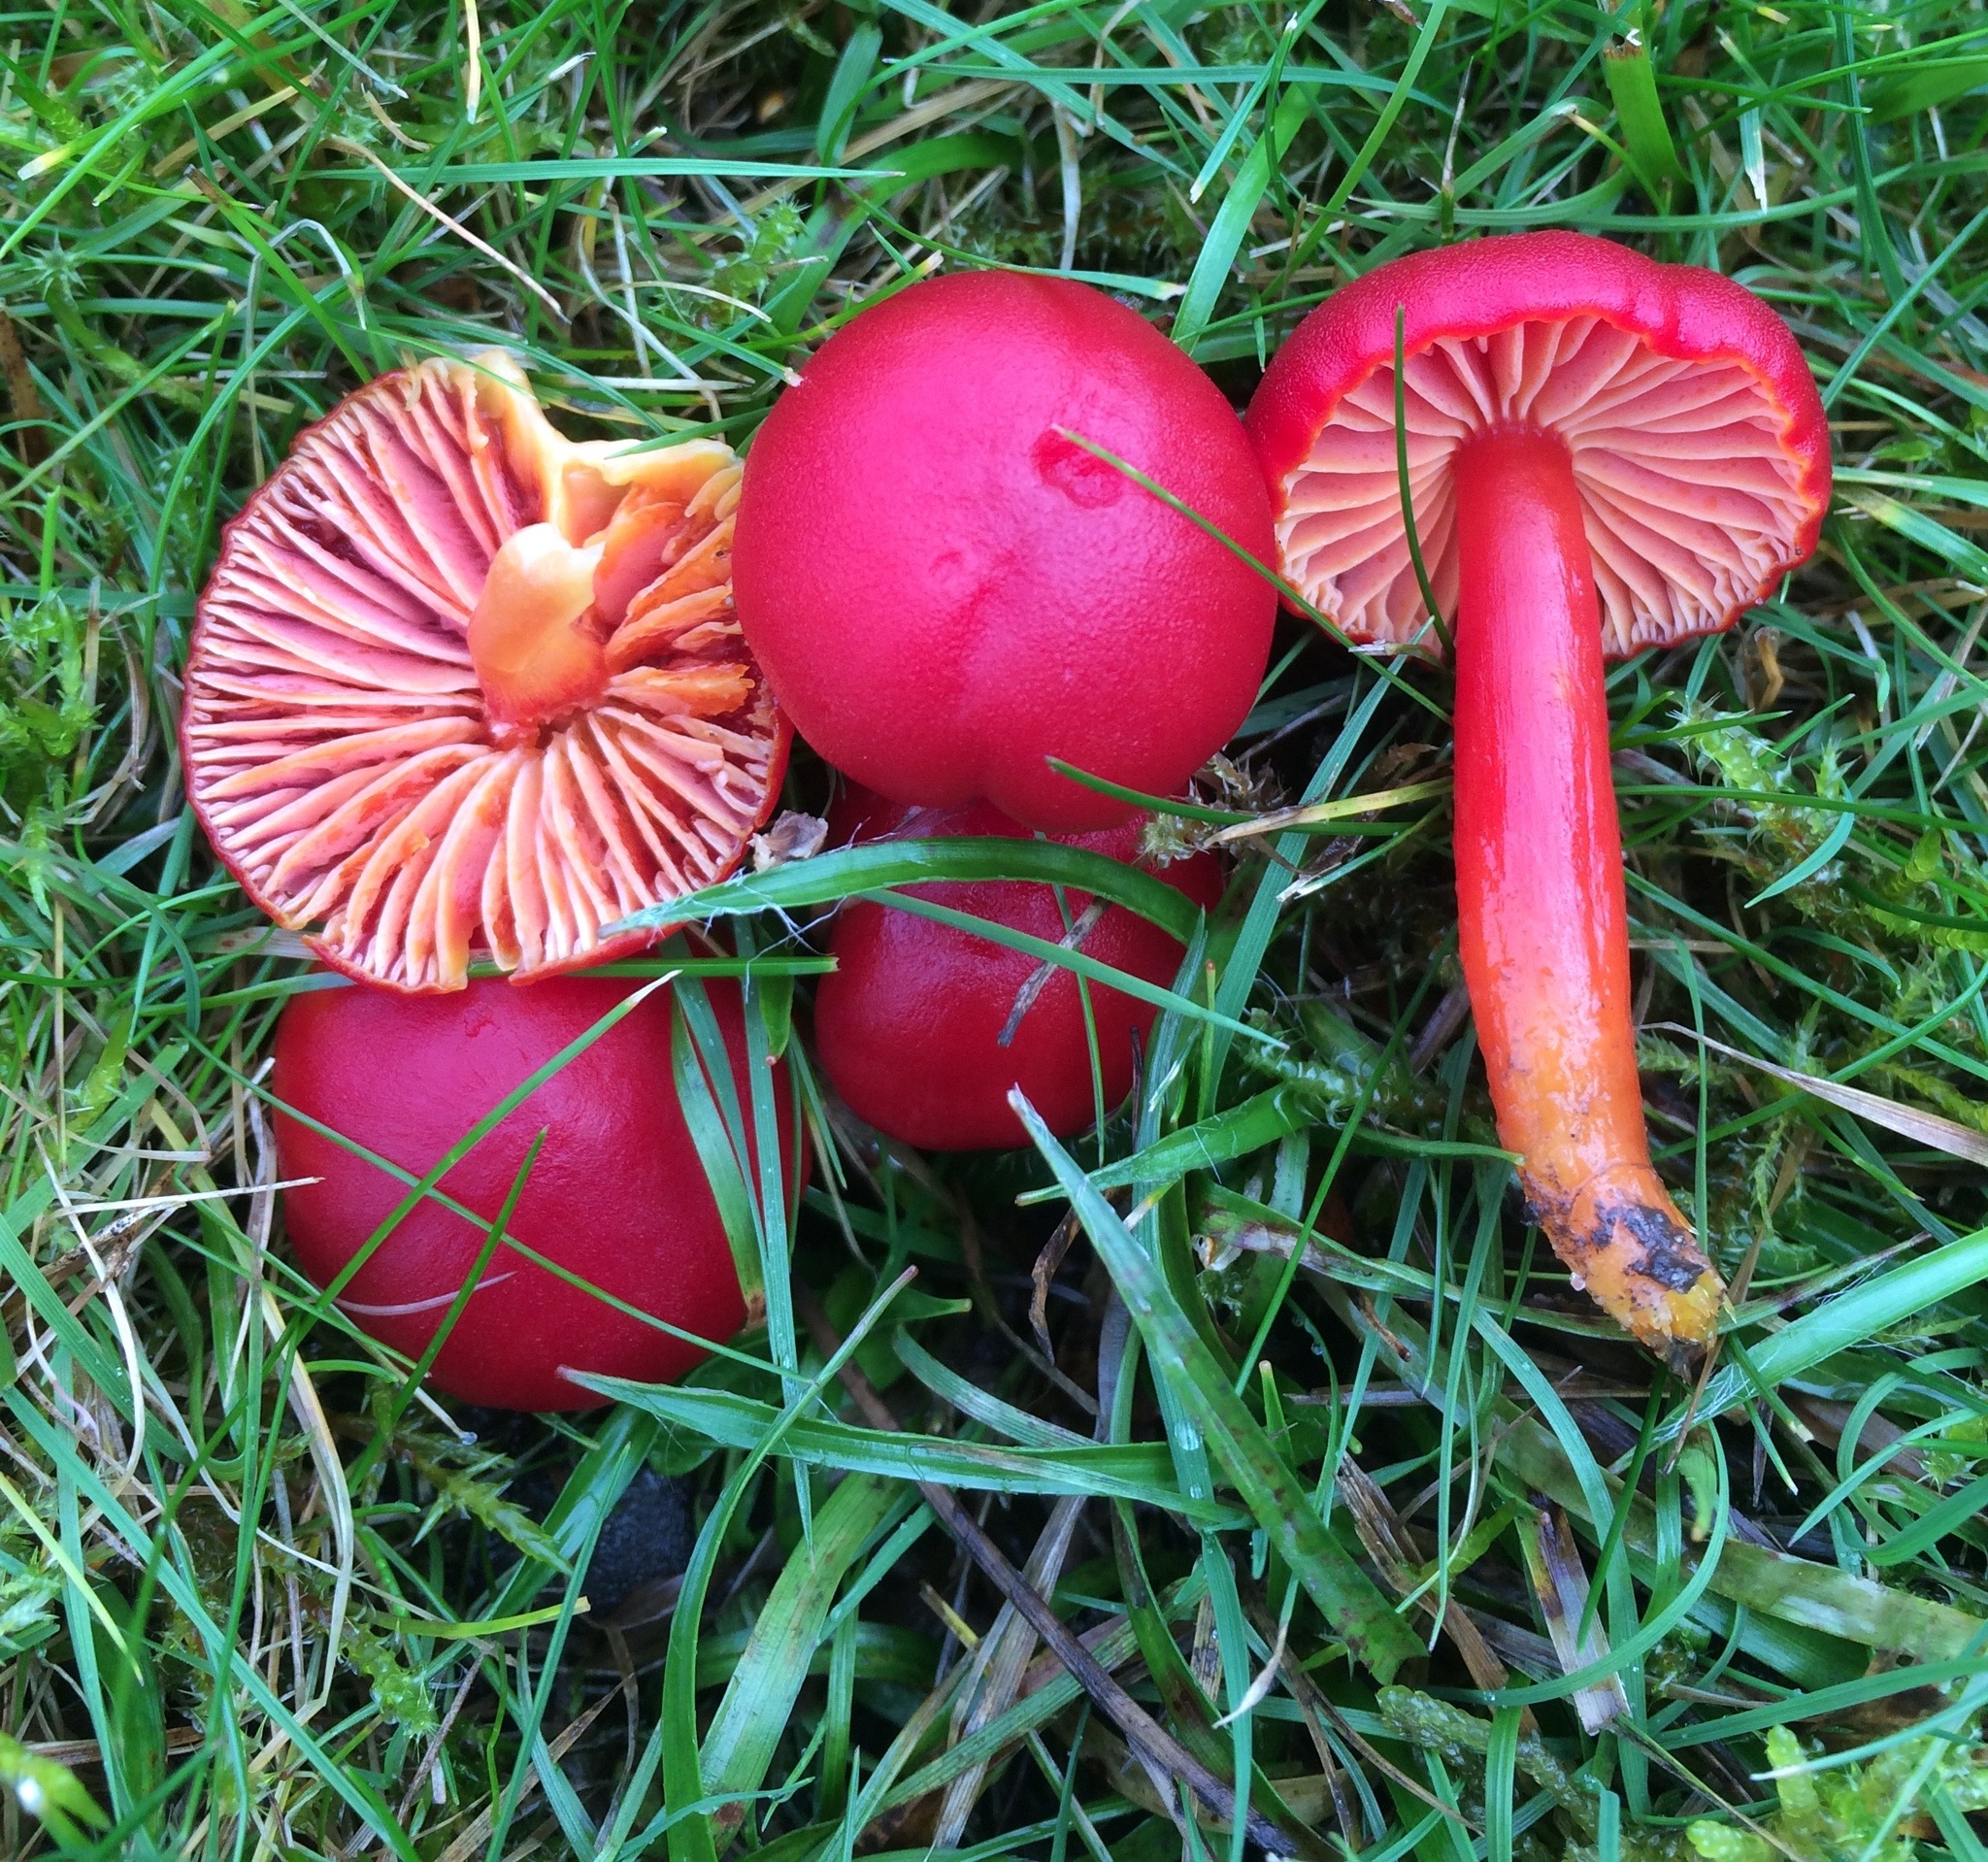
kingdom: Fungi
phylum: Basidiomycota
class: Agaricomycetes
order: Agaricales
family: Hygrophoraceae
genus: Hygrocybe
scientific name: Hygrocybe coccinea
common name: Scarlet hood
